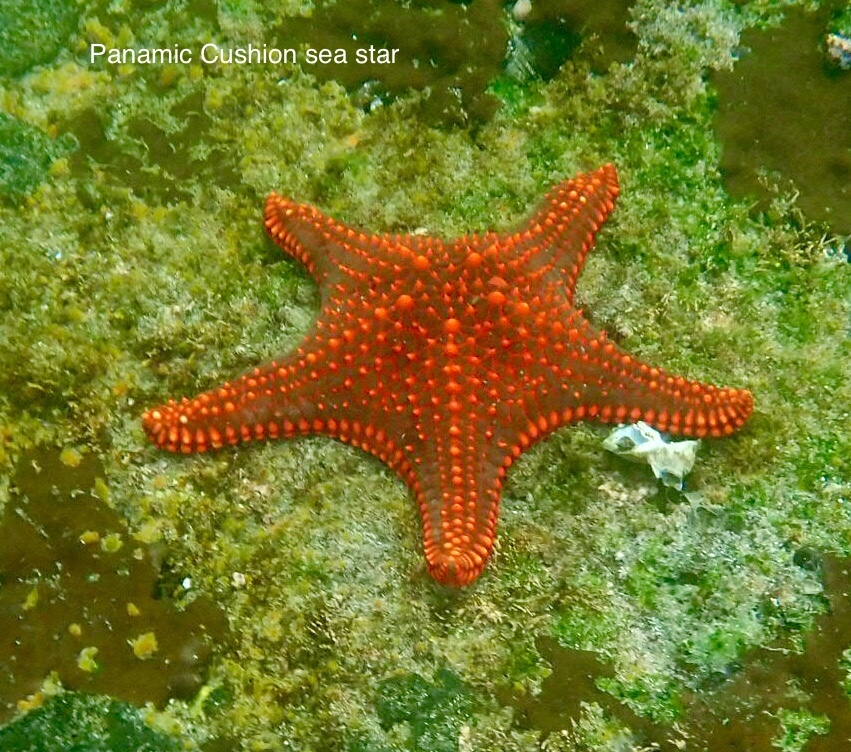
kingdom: Animalia
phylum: Echinodermata
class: Asteroidea
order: Valvatida
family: Oreasteridae
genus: Pentaceraster
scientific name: Pentaceraster cumingi
